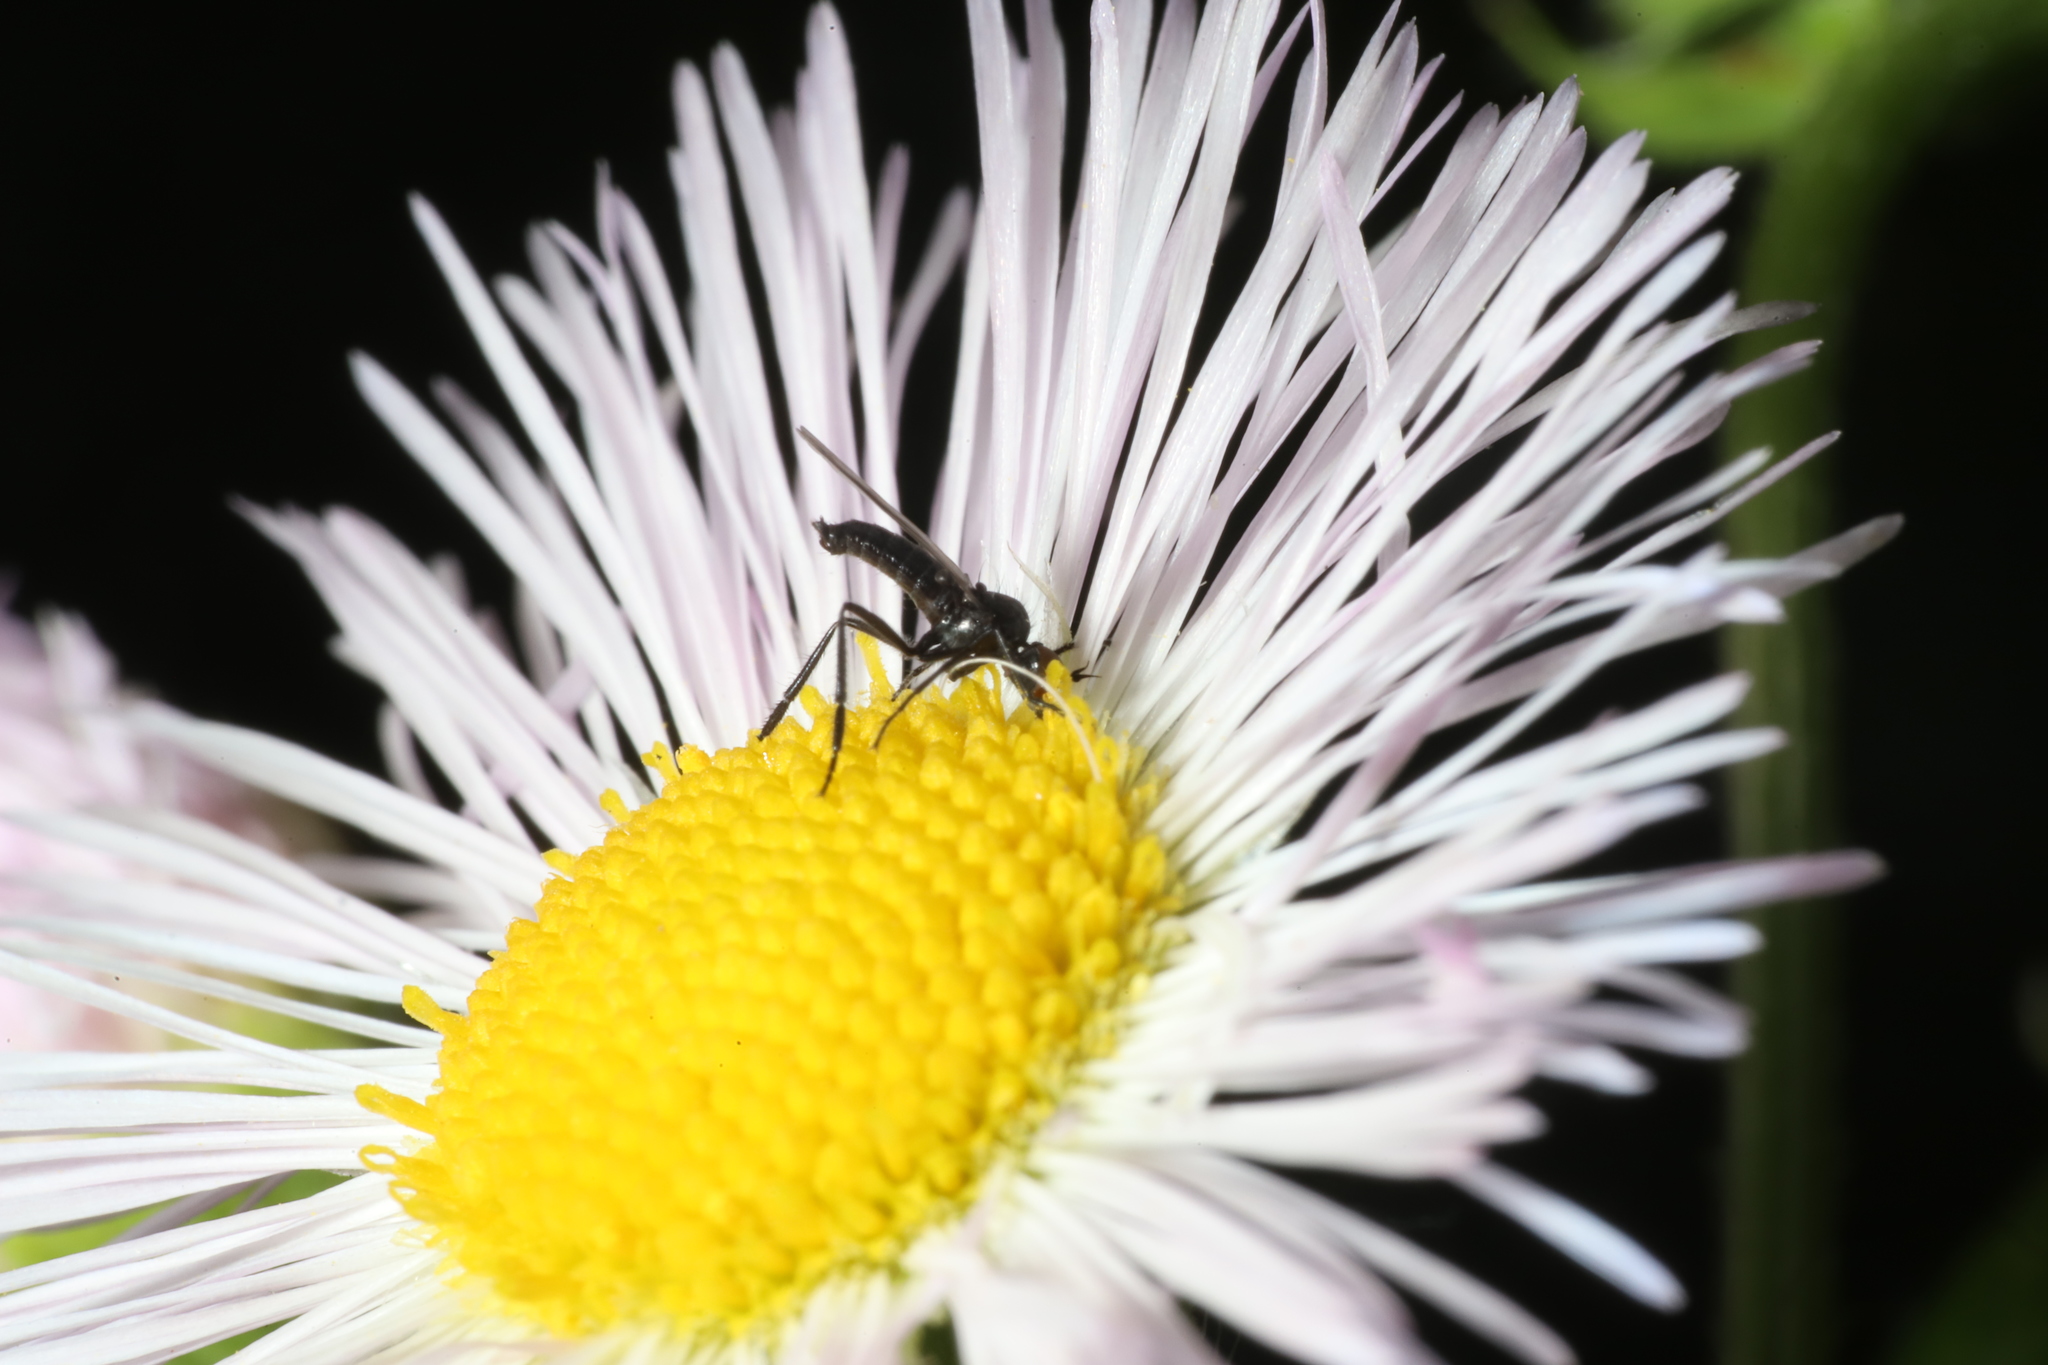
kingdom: Plantae
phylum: Tracheophyta
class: Magnoliopsida
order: Asterales
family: Asteraceae
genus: Erigeron
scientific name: Erigeron philadelphicus
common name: Robin's-plantain
